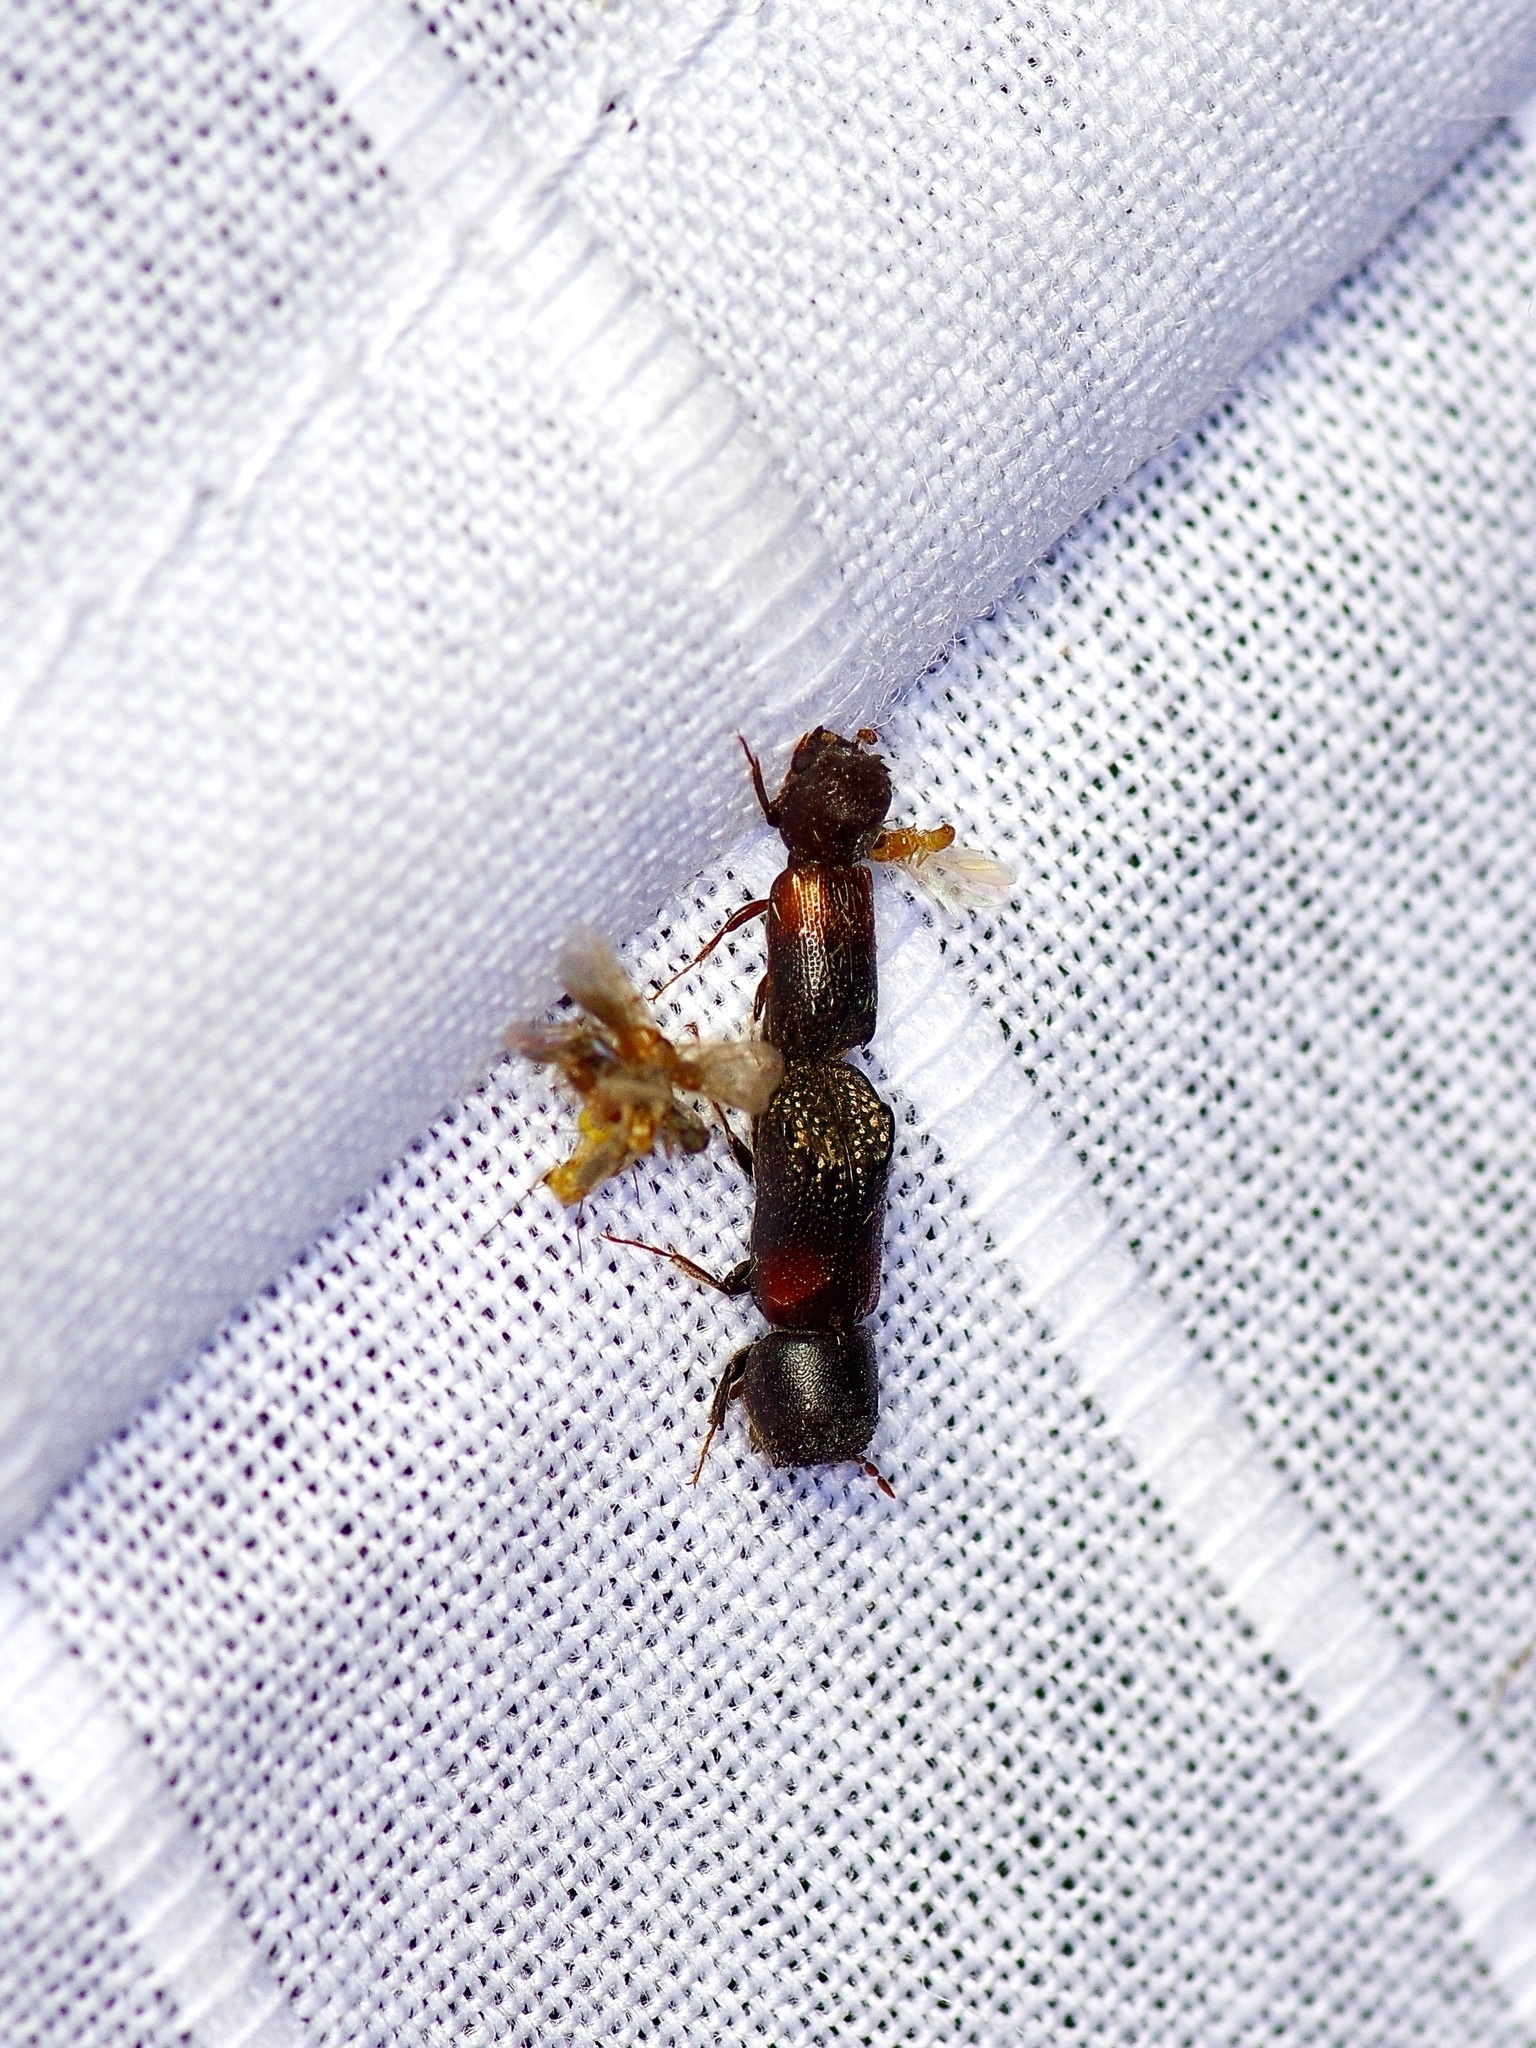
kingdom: Animalia
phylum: Arthropoda
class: Insecta
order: Coleoptera
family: Bostrichidae
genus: Xylobiops
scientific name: Xylobiops basilaris
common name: Red-shouldered bostrichid
